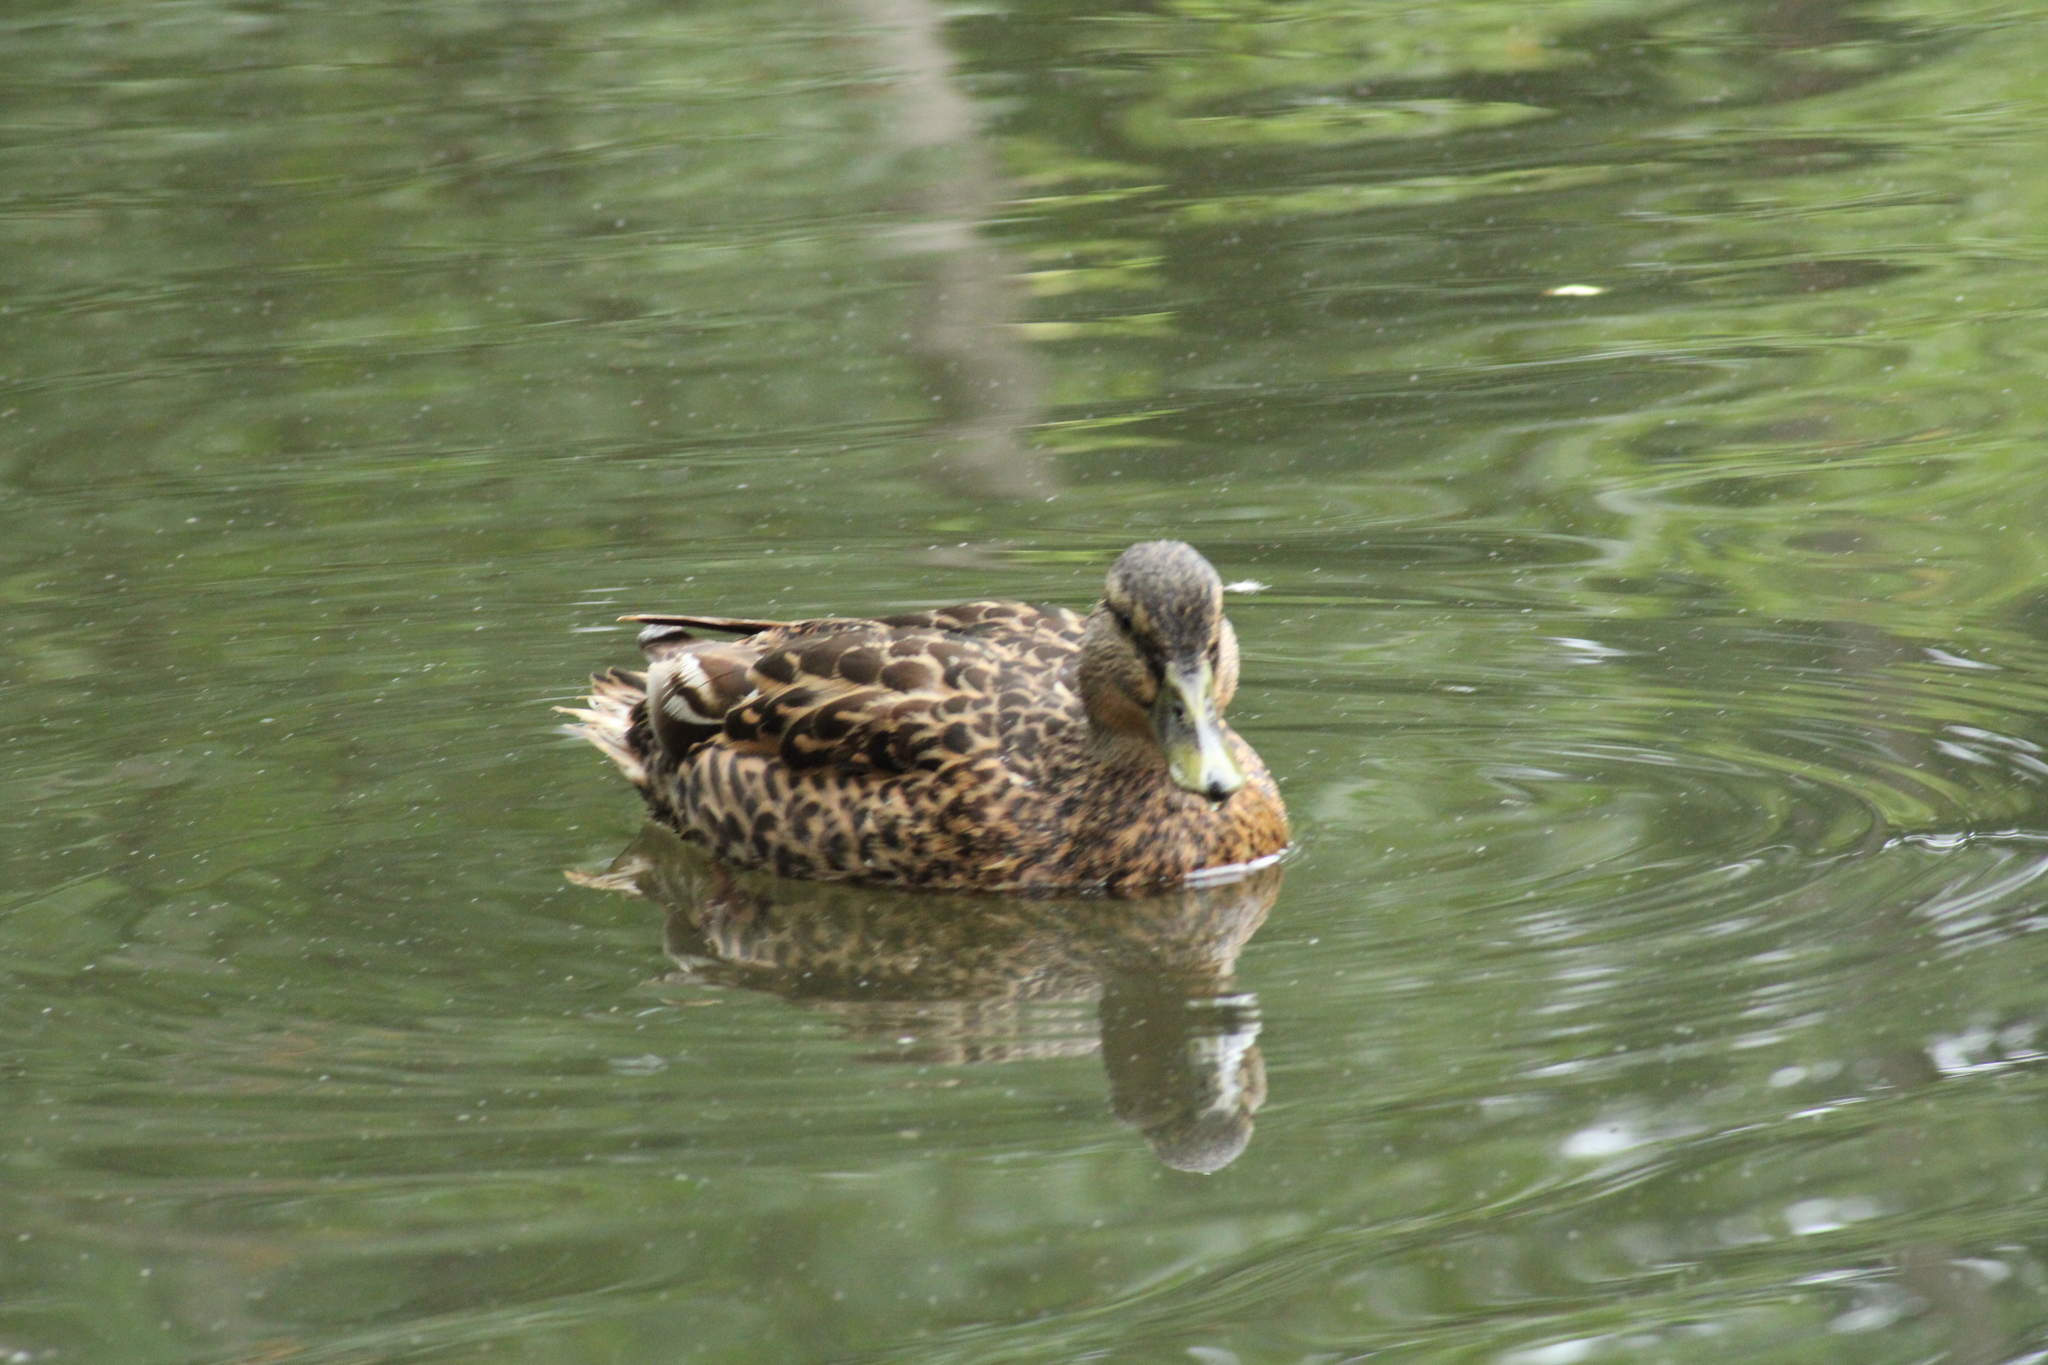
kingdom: Animalia
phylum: Chordata
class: Aves
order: Anseriformes
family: Anatidae
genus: Anas
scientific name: Anas platyrhynchos
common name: Mallard
